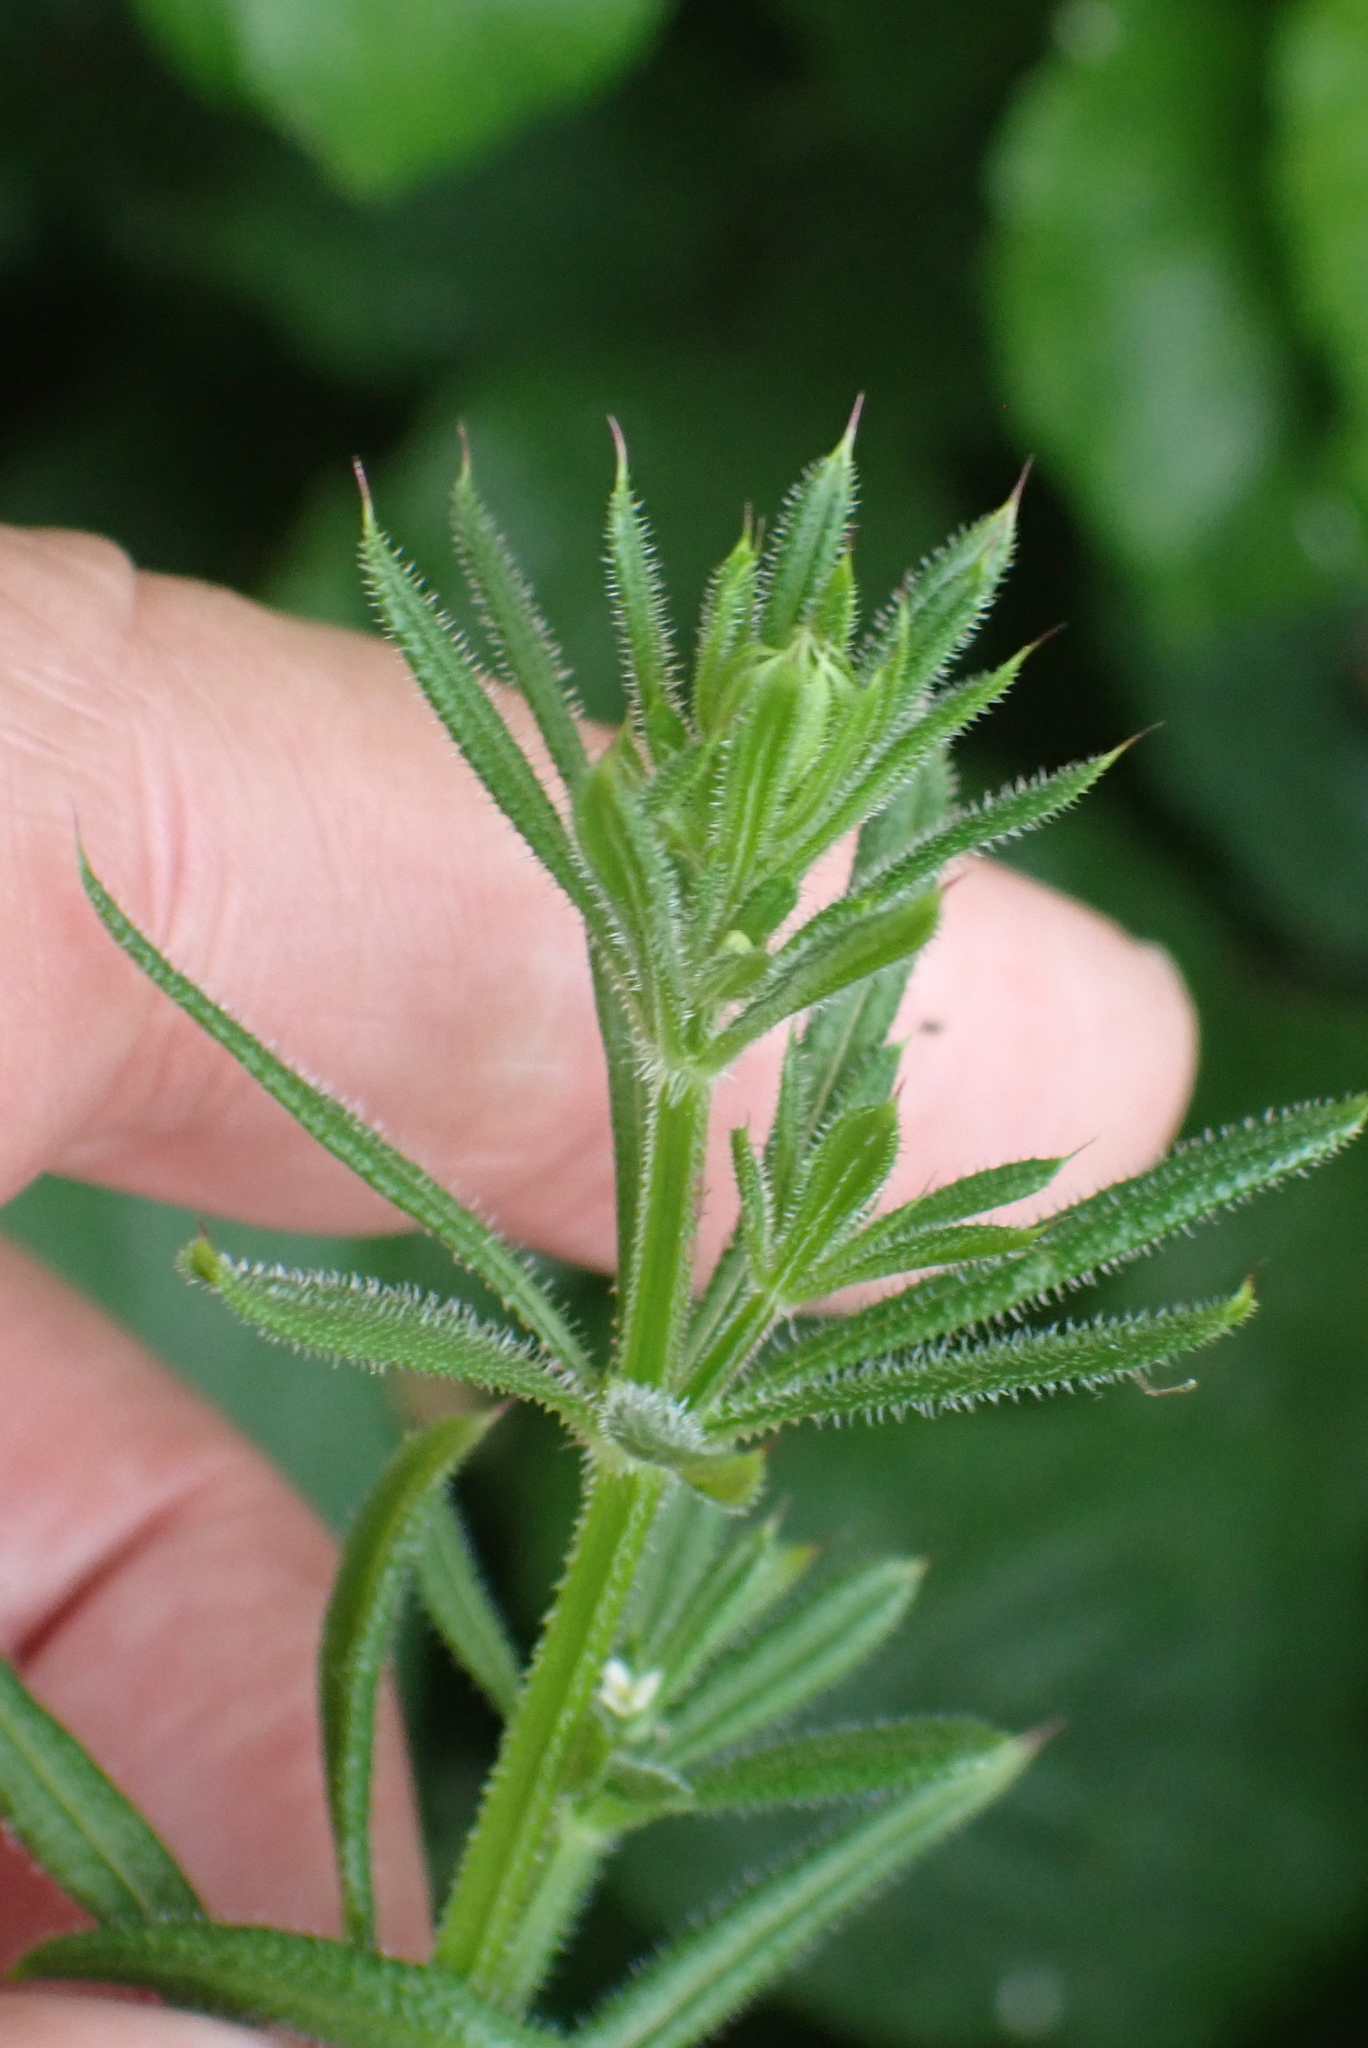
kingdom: Plantae
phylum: Tracheophyta
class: Magnoliopsida
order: Gentianales
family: Rubiaceae
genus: Galium
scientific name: Galium aparine
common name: Cleavers
